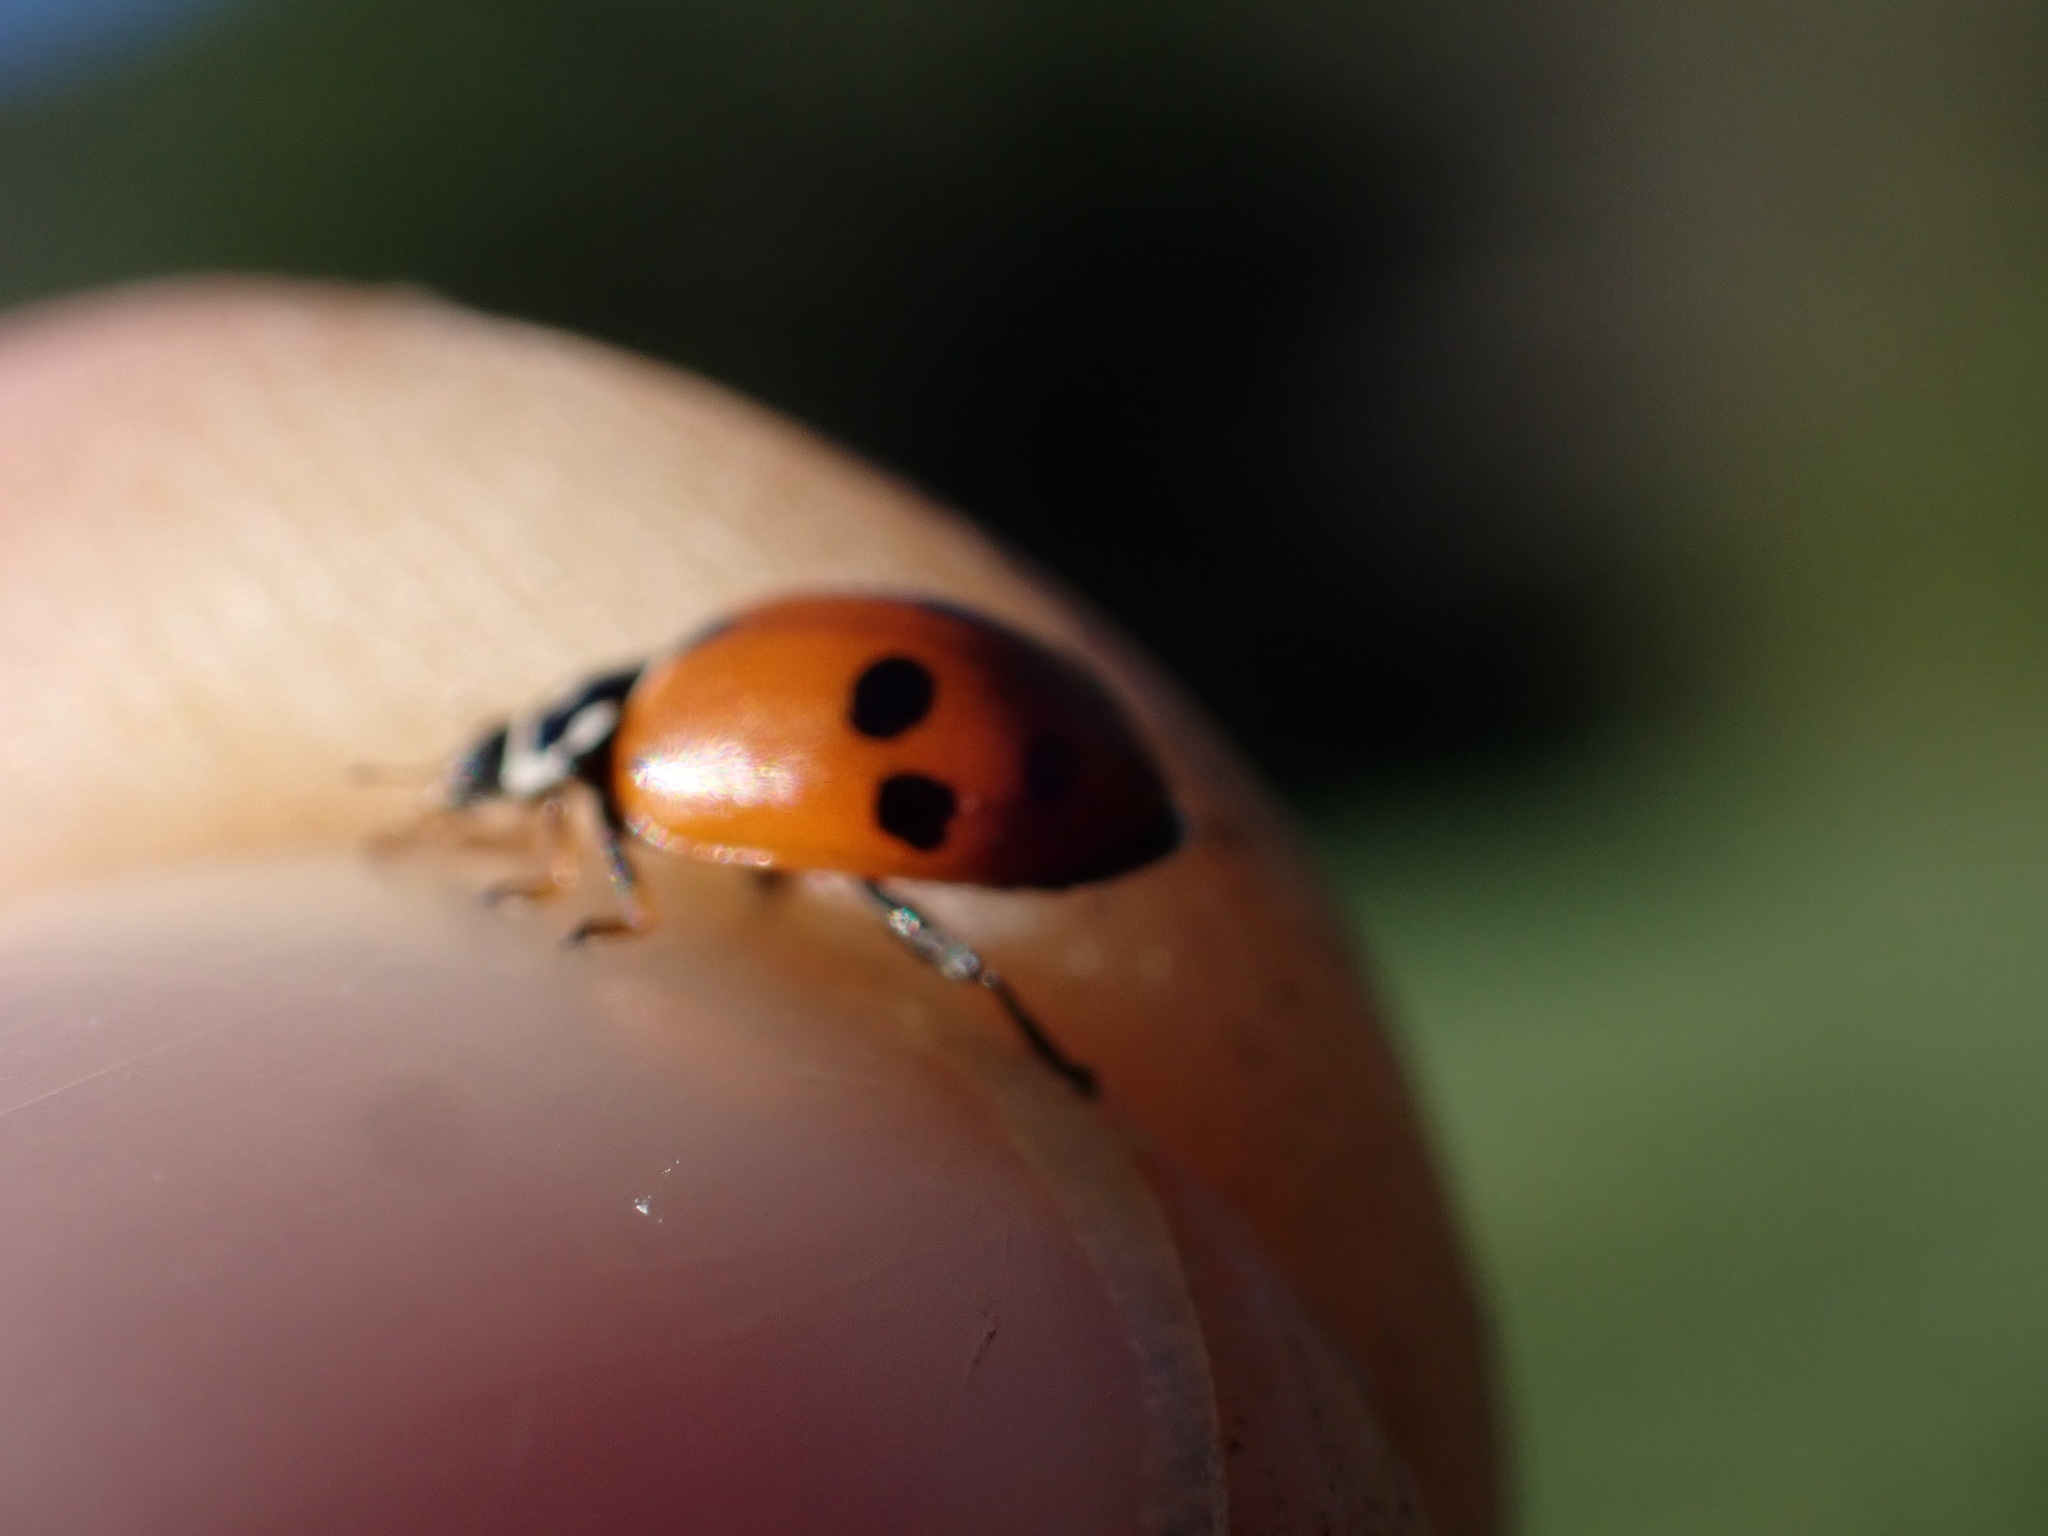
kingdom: Animalia
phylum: Arthropoda
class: Insecta
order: Coleoptera
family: Coccinellidae
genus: Hippodamia
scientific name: Hippodamia variegata
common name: Ladybird beetle
